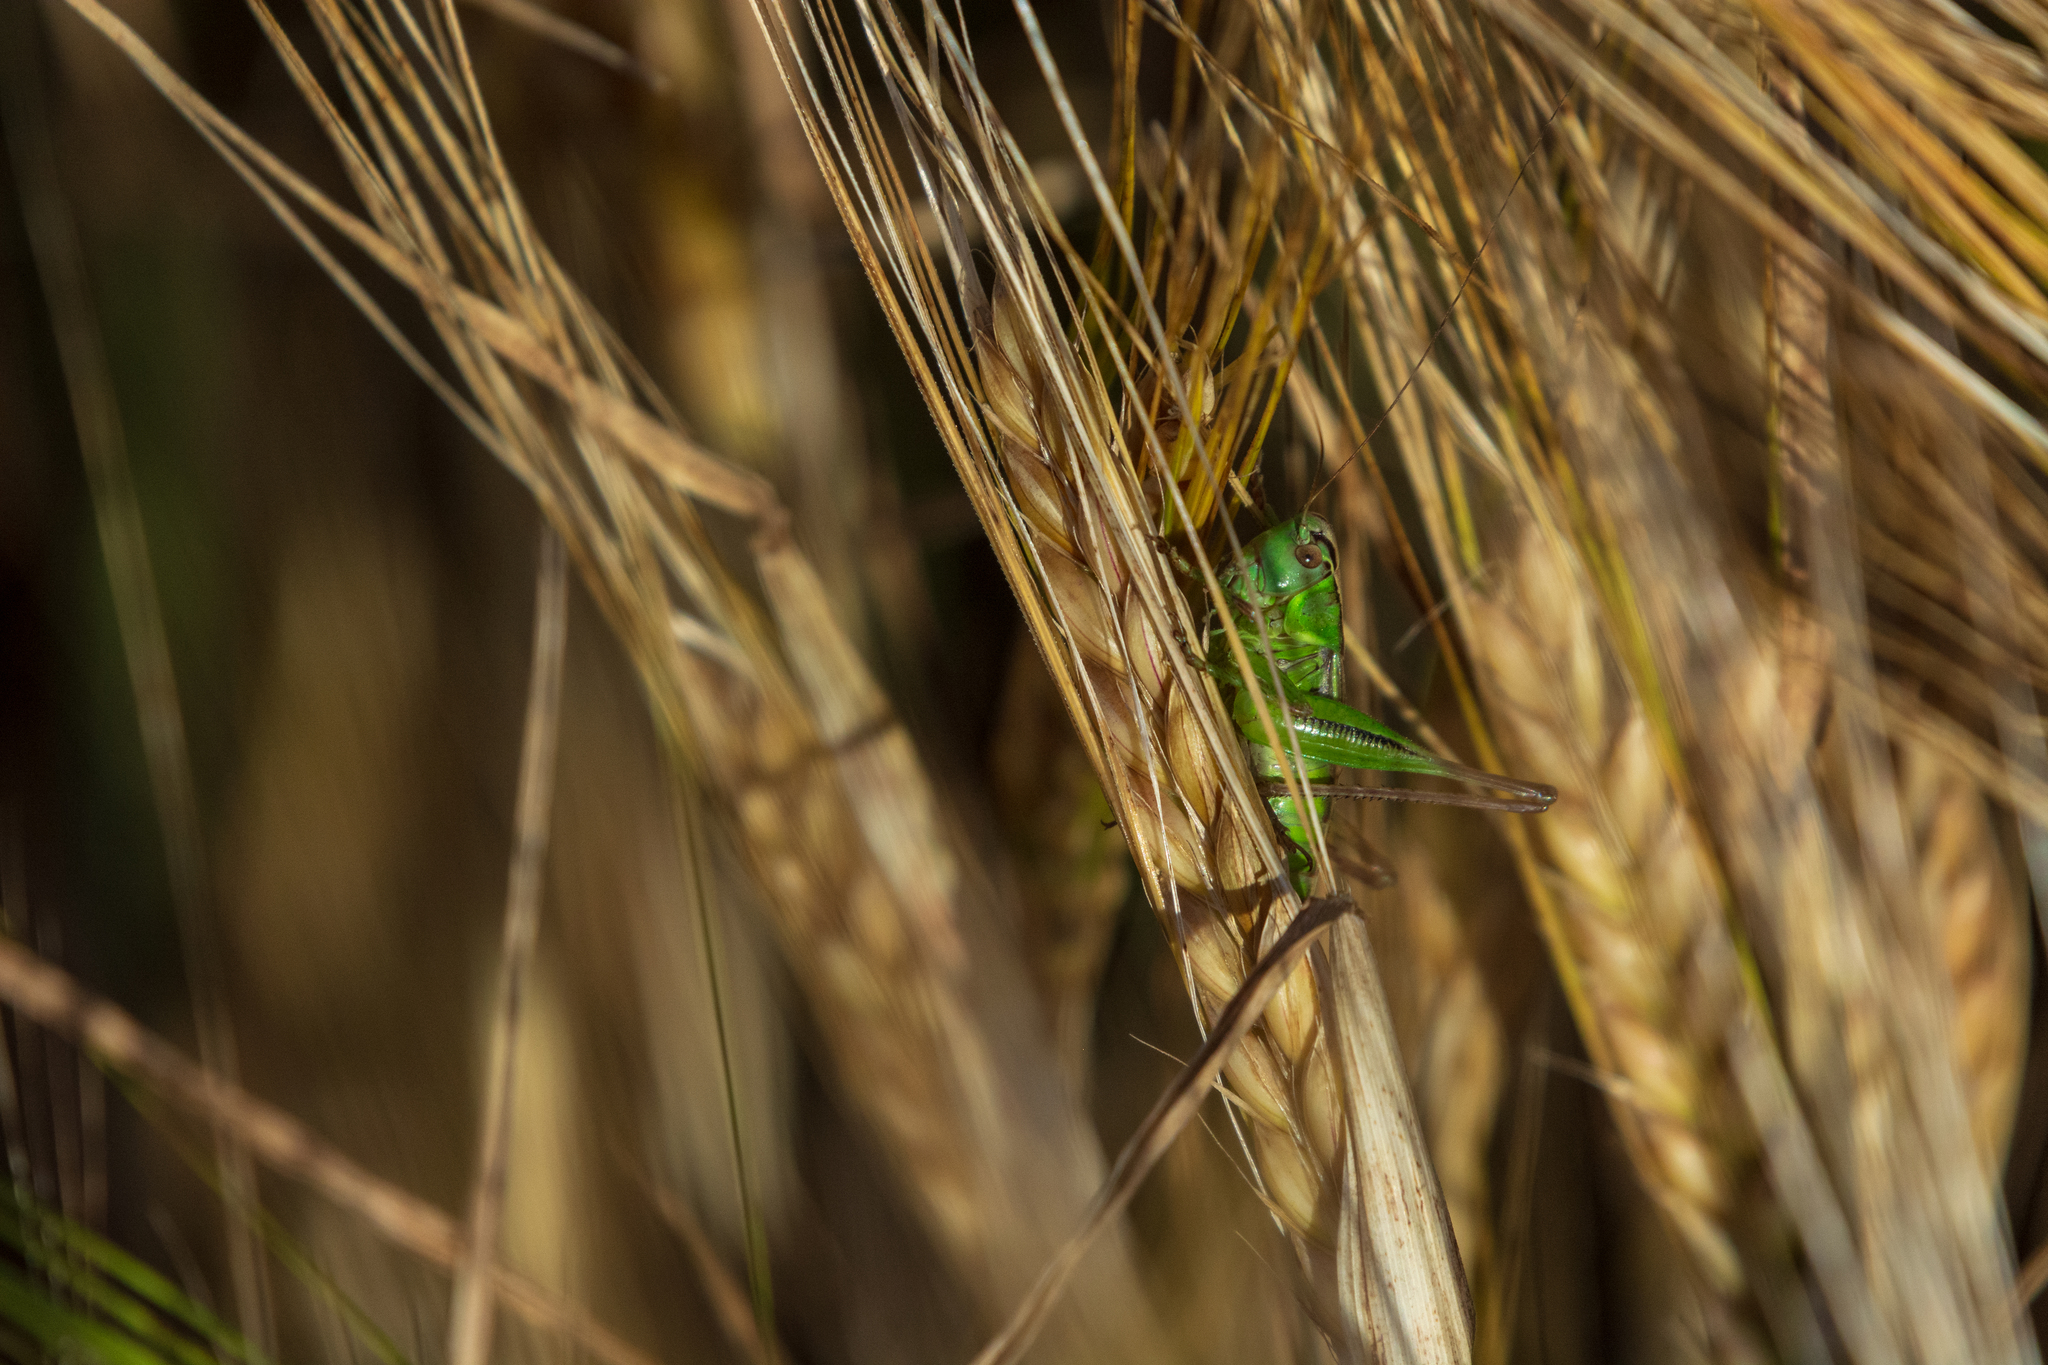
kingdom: Animalia
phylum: Arthropoda
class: Insecta
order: Orthoptera
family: Tettigoniidae
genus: Roeseliana
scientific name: Roeseliana roeselii
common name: Roesel's bush cricket
